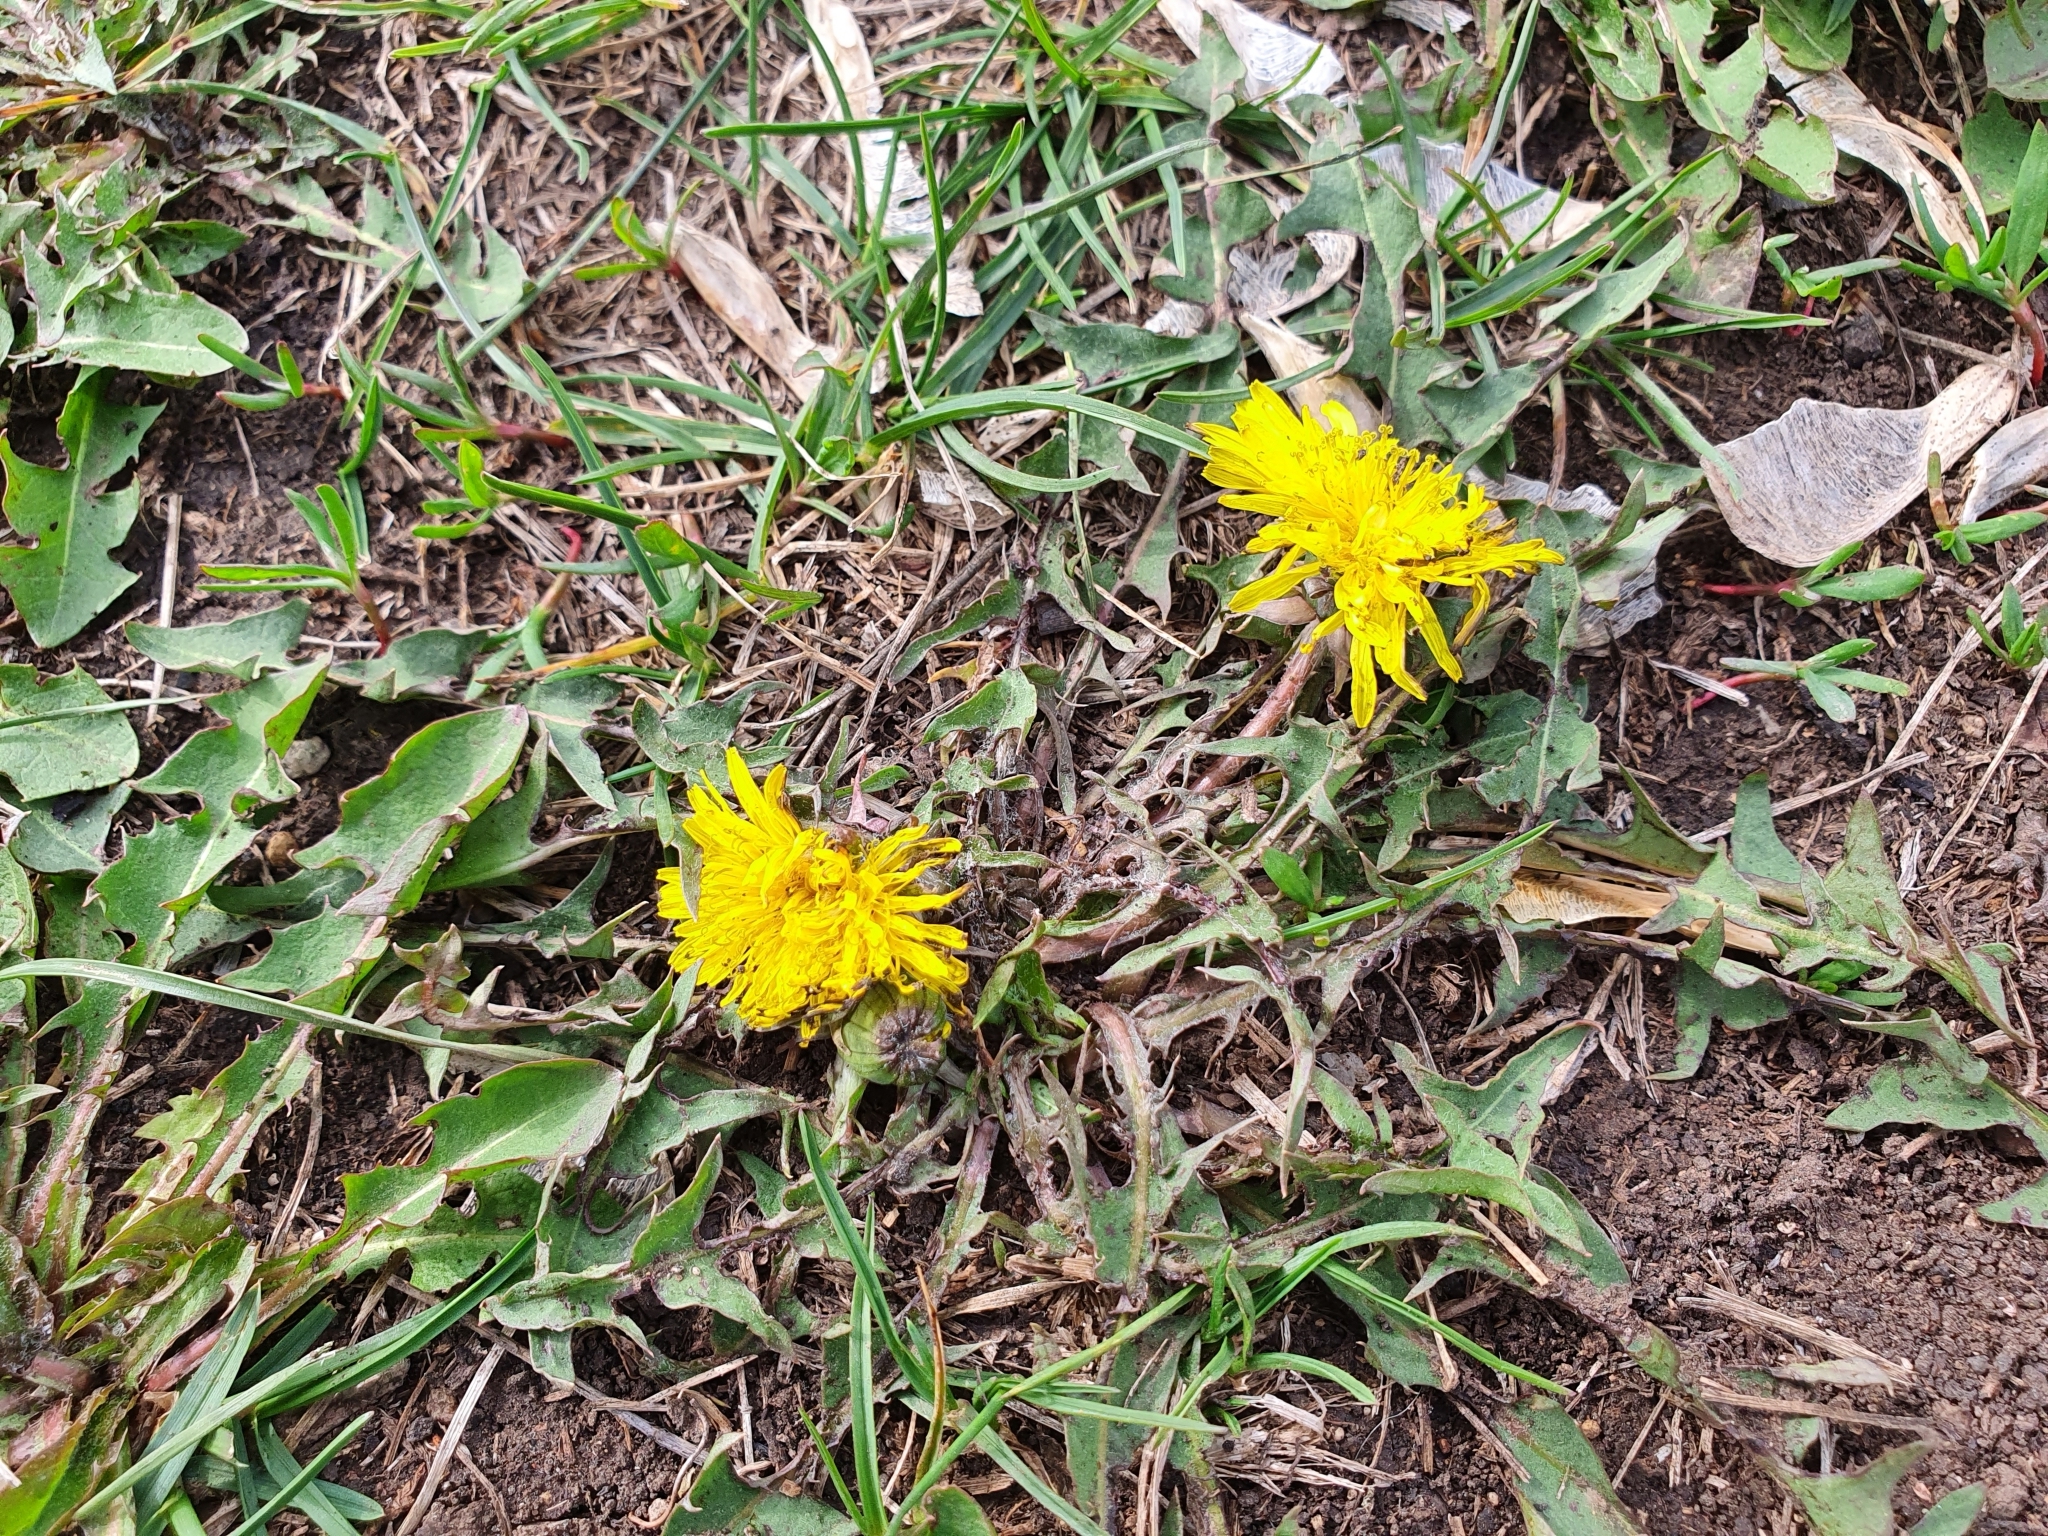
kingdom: Plantae
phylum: Tracheophyta
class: Magnoliopsida
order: Asterales
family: Asteraceae
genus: Taraxacum
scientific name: Taraxacum officinale
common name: Common dandelion
